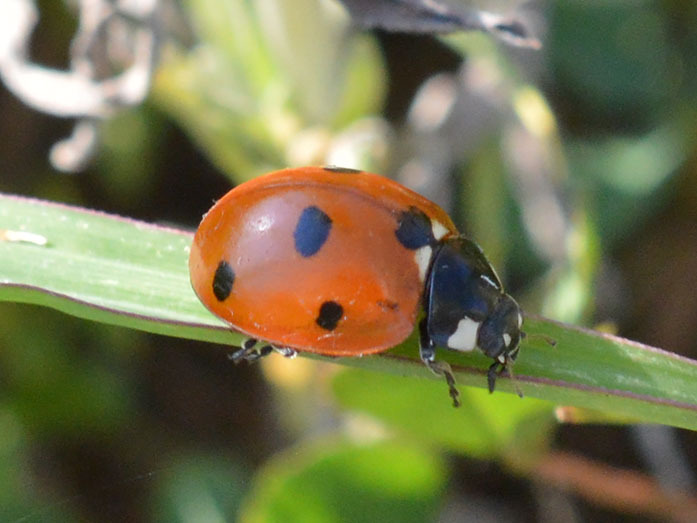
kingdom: Animalia
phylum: Arthropoda
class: Insecta
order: Coleoptera
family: Coccinellidae
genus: Coccinella
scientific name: Coccinella septempunctata
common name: Sevenspotted lady beetle
